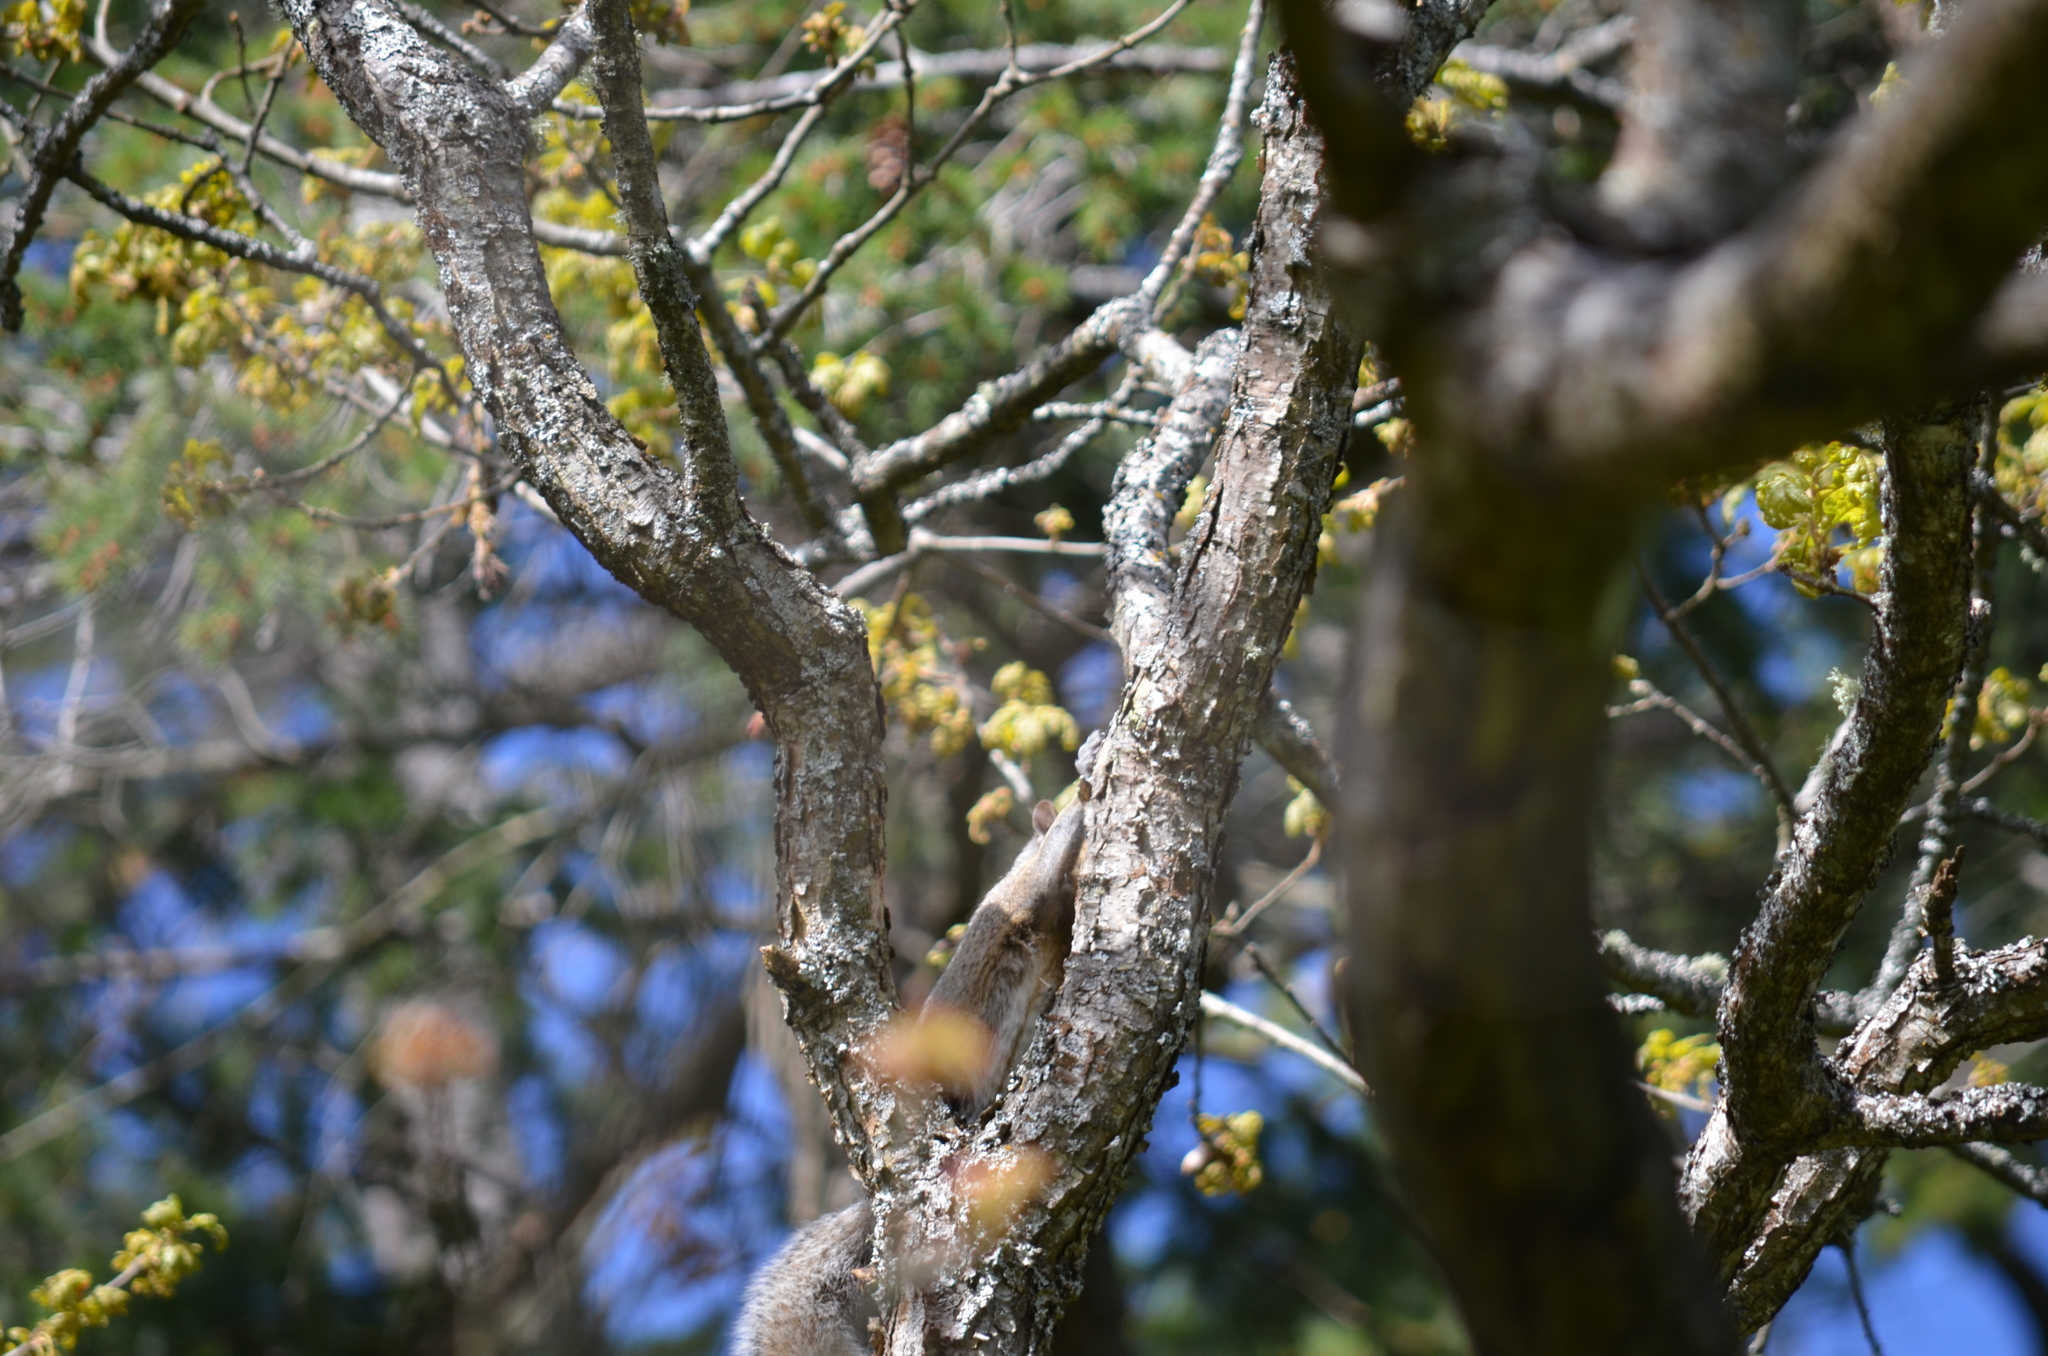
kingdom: Animalia
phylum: Chordata
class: Mammalia
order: Rodentia
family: Sciuridae
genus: Sciurus
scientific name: Sciurus carolinensis
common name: Eastern gray squirrel
